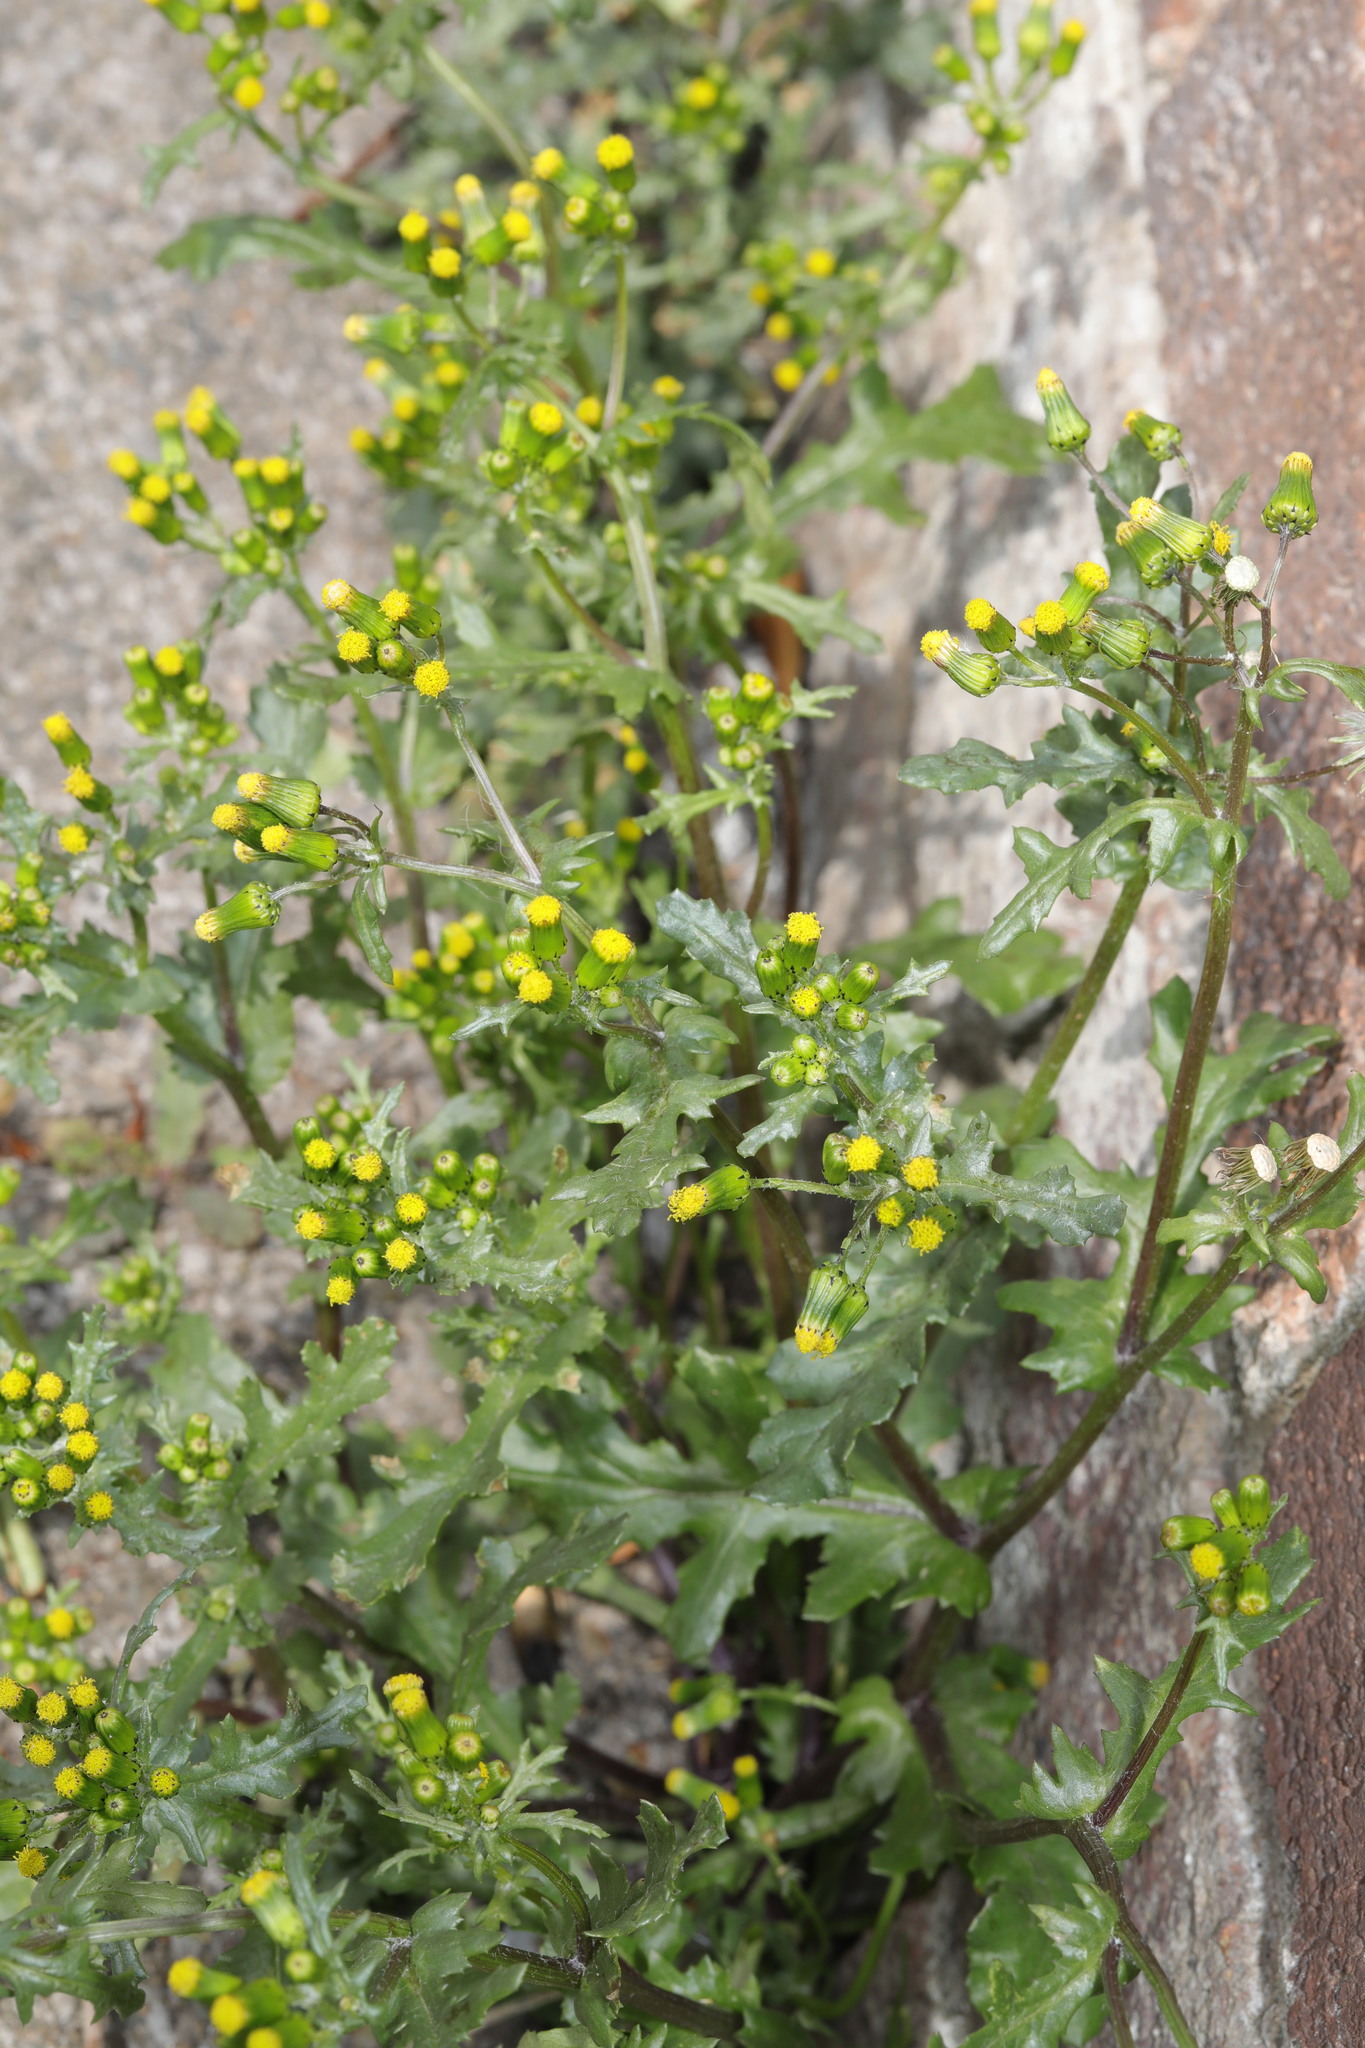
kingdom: Plantae
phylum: Tracheophyta
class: Magnoliopsida
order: Asterales
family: Asteraceae
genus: Senecio
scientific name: Senecio vulgaris
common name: Old-man-in-the-spring
